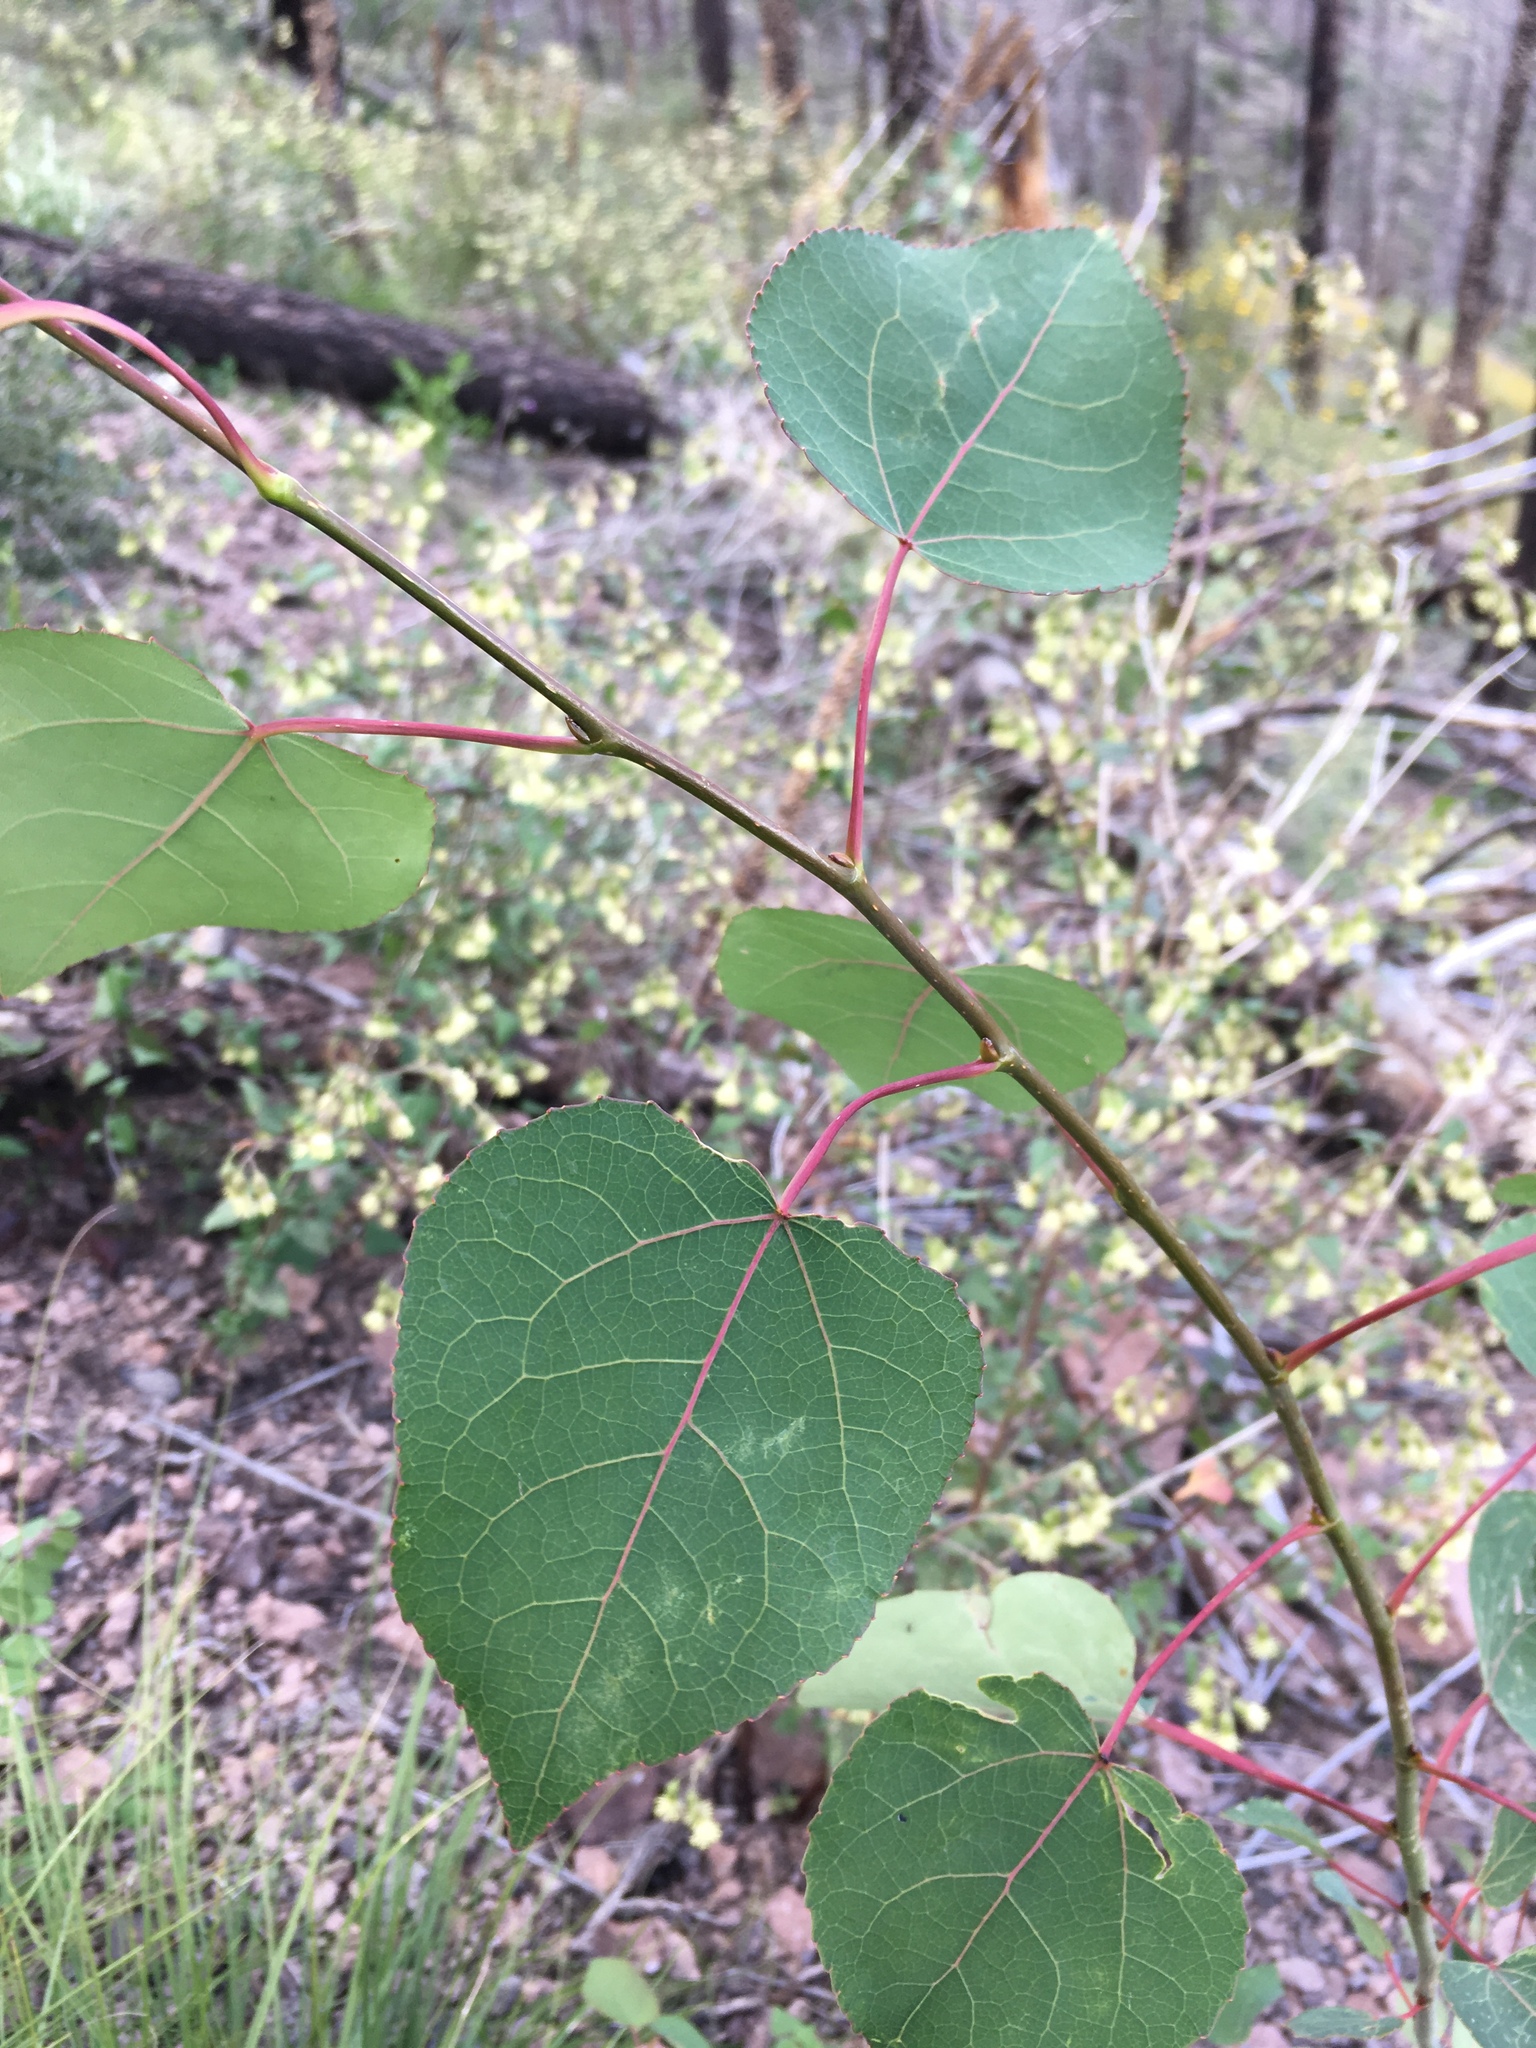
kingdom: Plantae
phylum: Tracheophyta
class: Magnoliopsida
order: Malpighiales
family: Salicaceae
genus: Populus
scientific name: Populus tremuloides
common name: Quaking aspen
